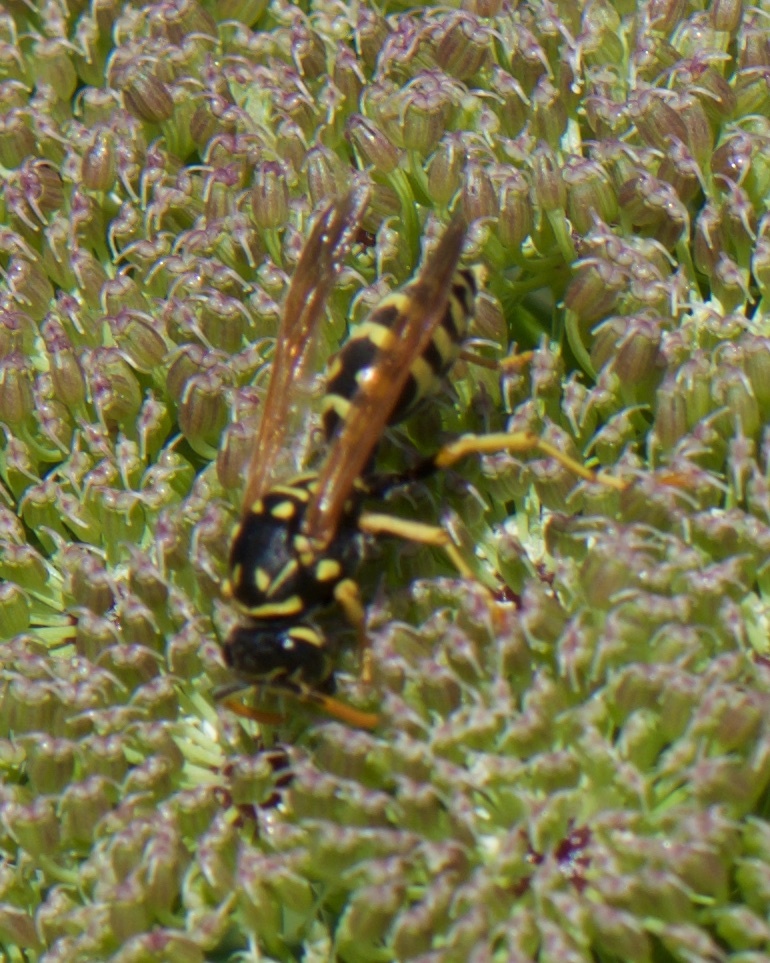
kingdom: Animalia
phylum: Arthropoda
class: Insecta
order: Hymenoptera
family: Eumenidae
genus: Polistes
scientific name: Polistes dominula
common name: Paper wasp
